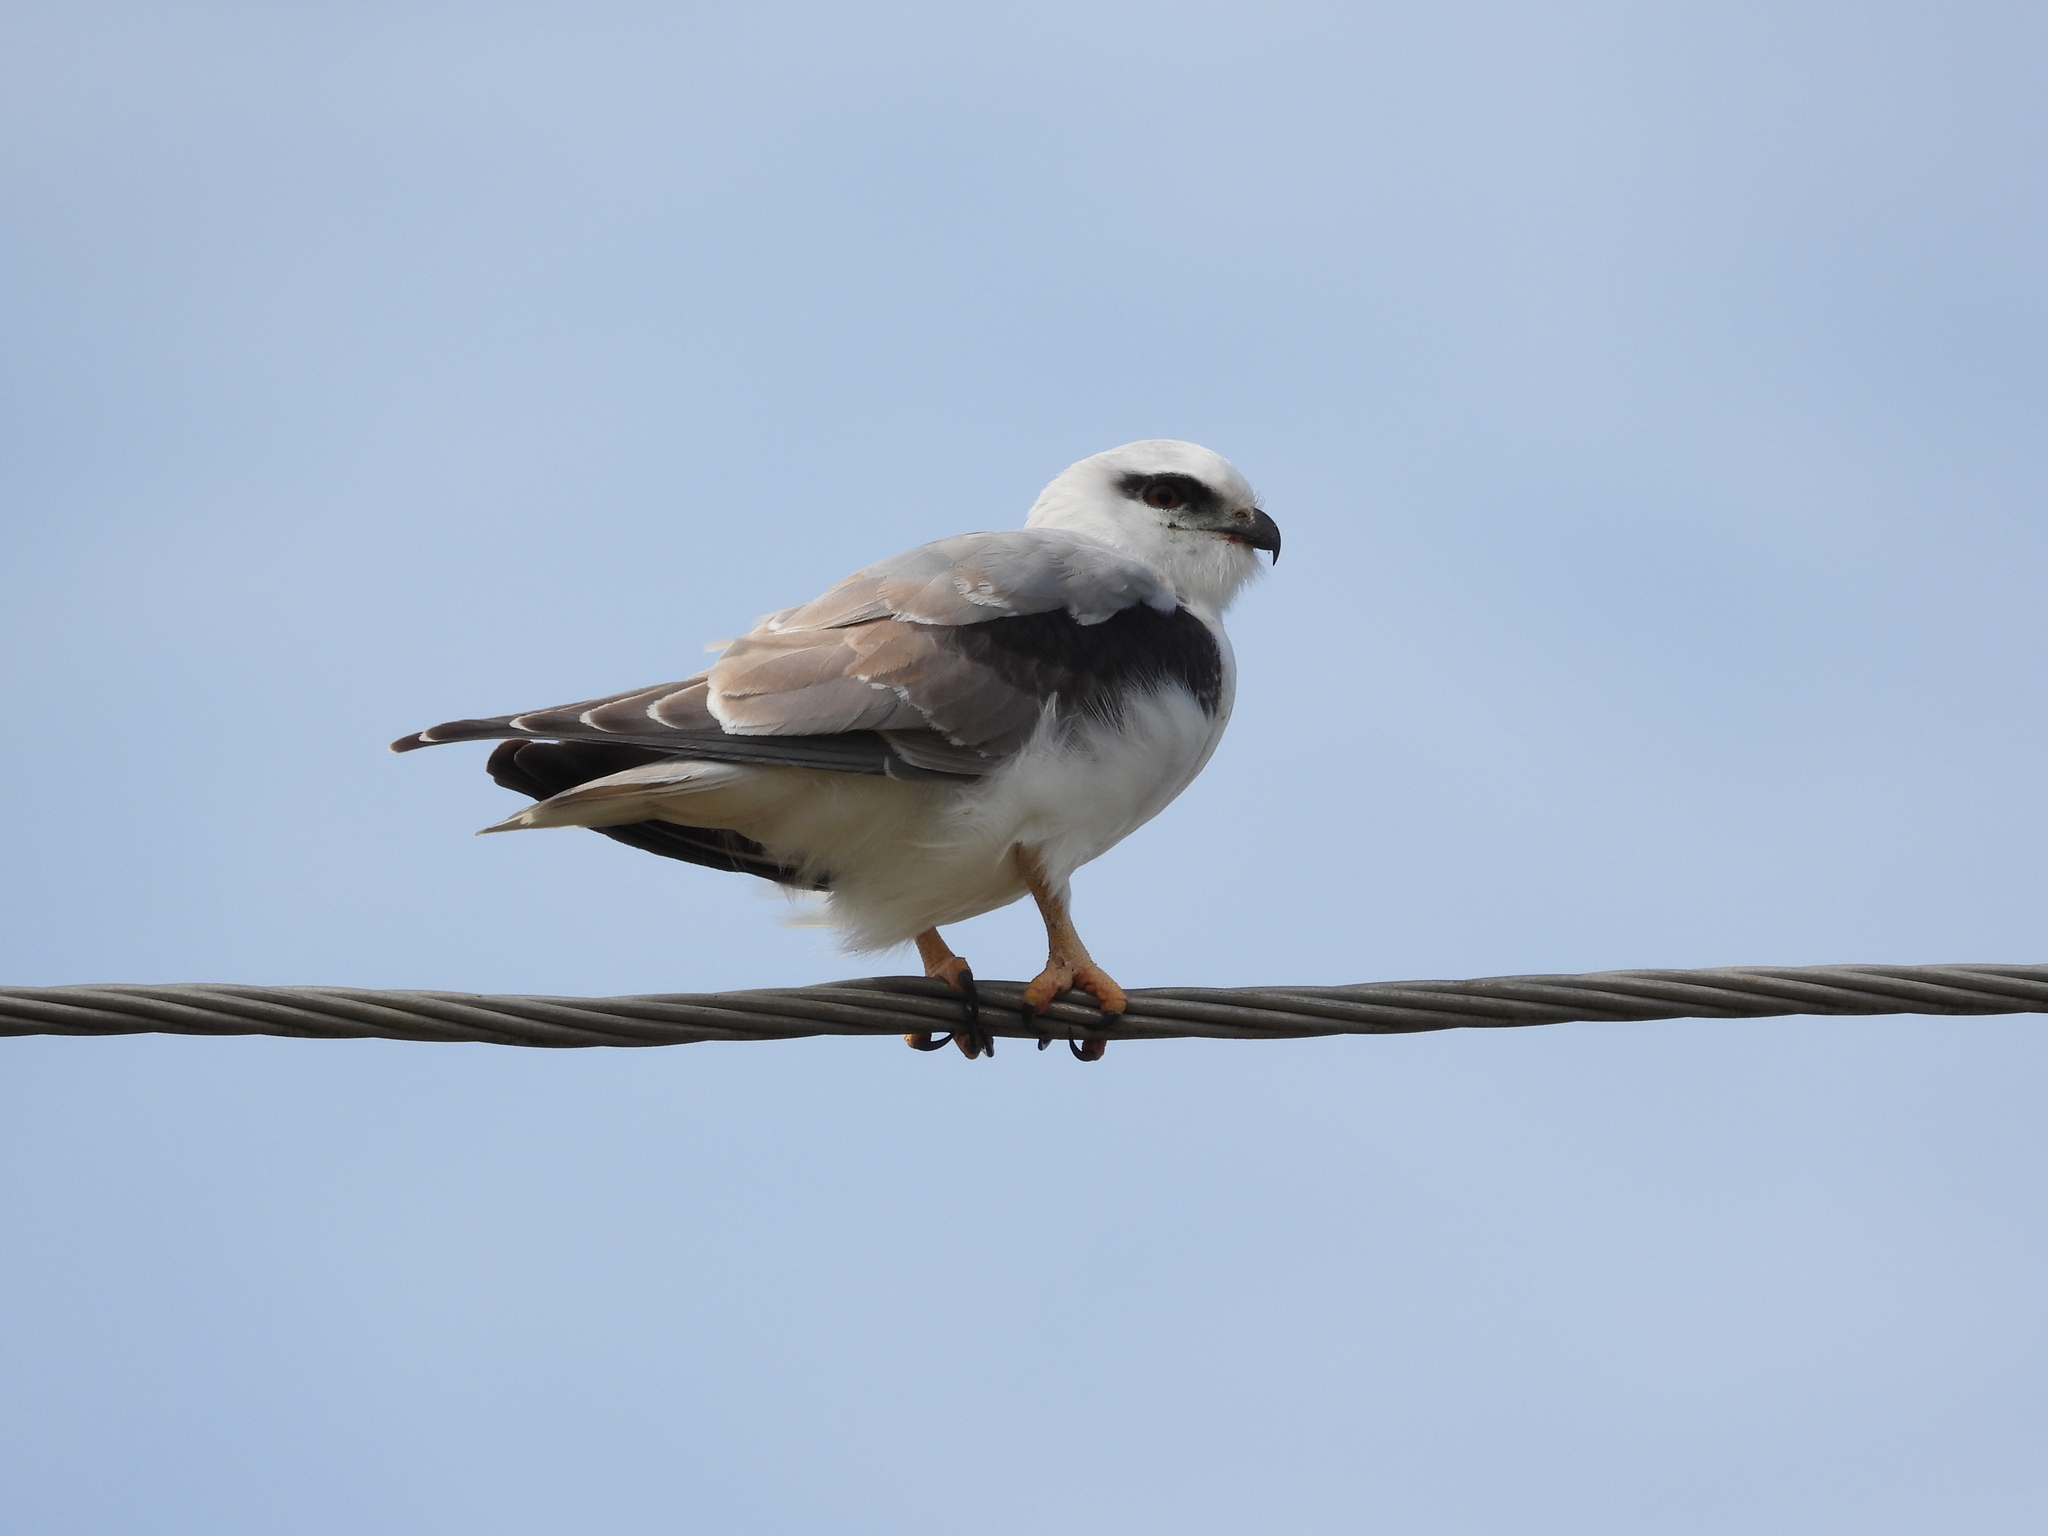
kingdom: Animalia
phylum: Chordata
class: Aves
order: Accipitriformes
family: Accipitridae
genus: Elanus
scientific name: Elanus axillaris
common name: Black-shouldered kite
